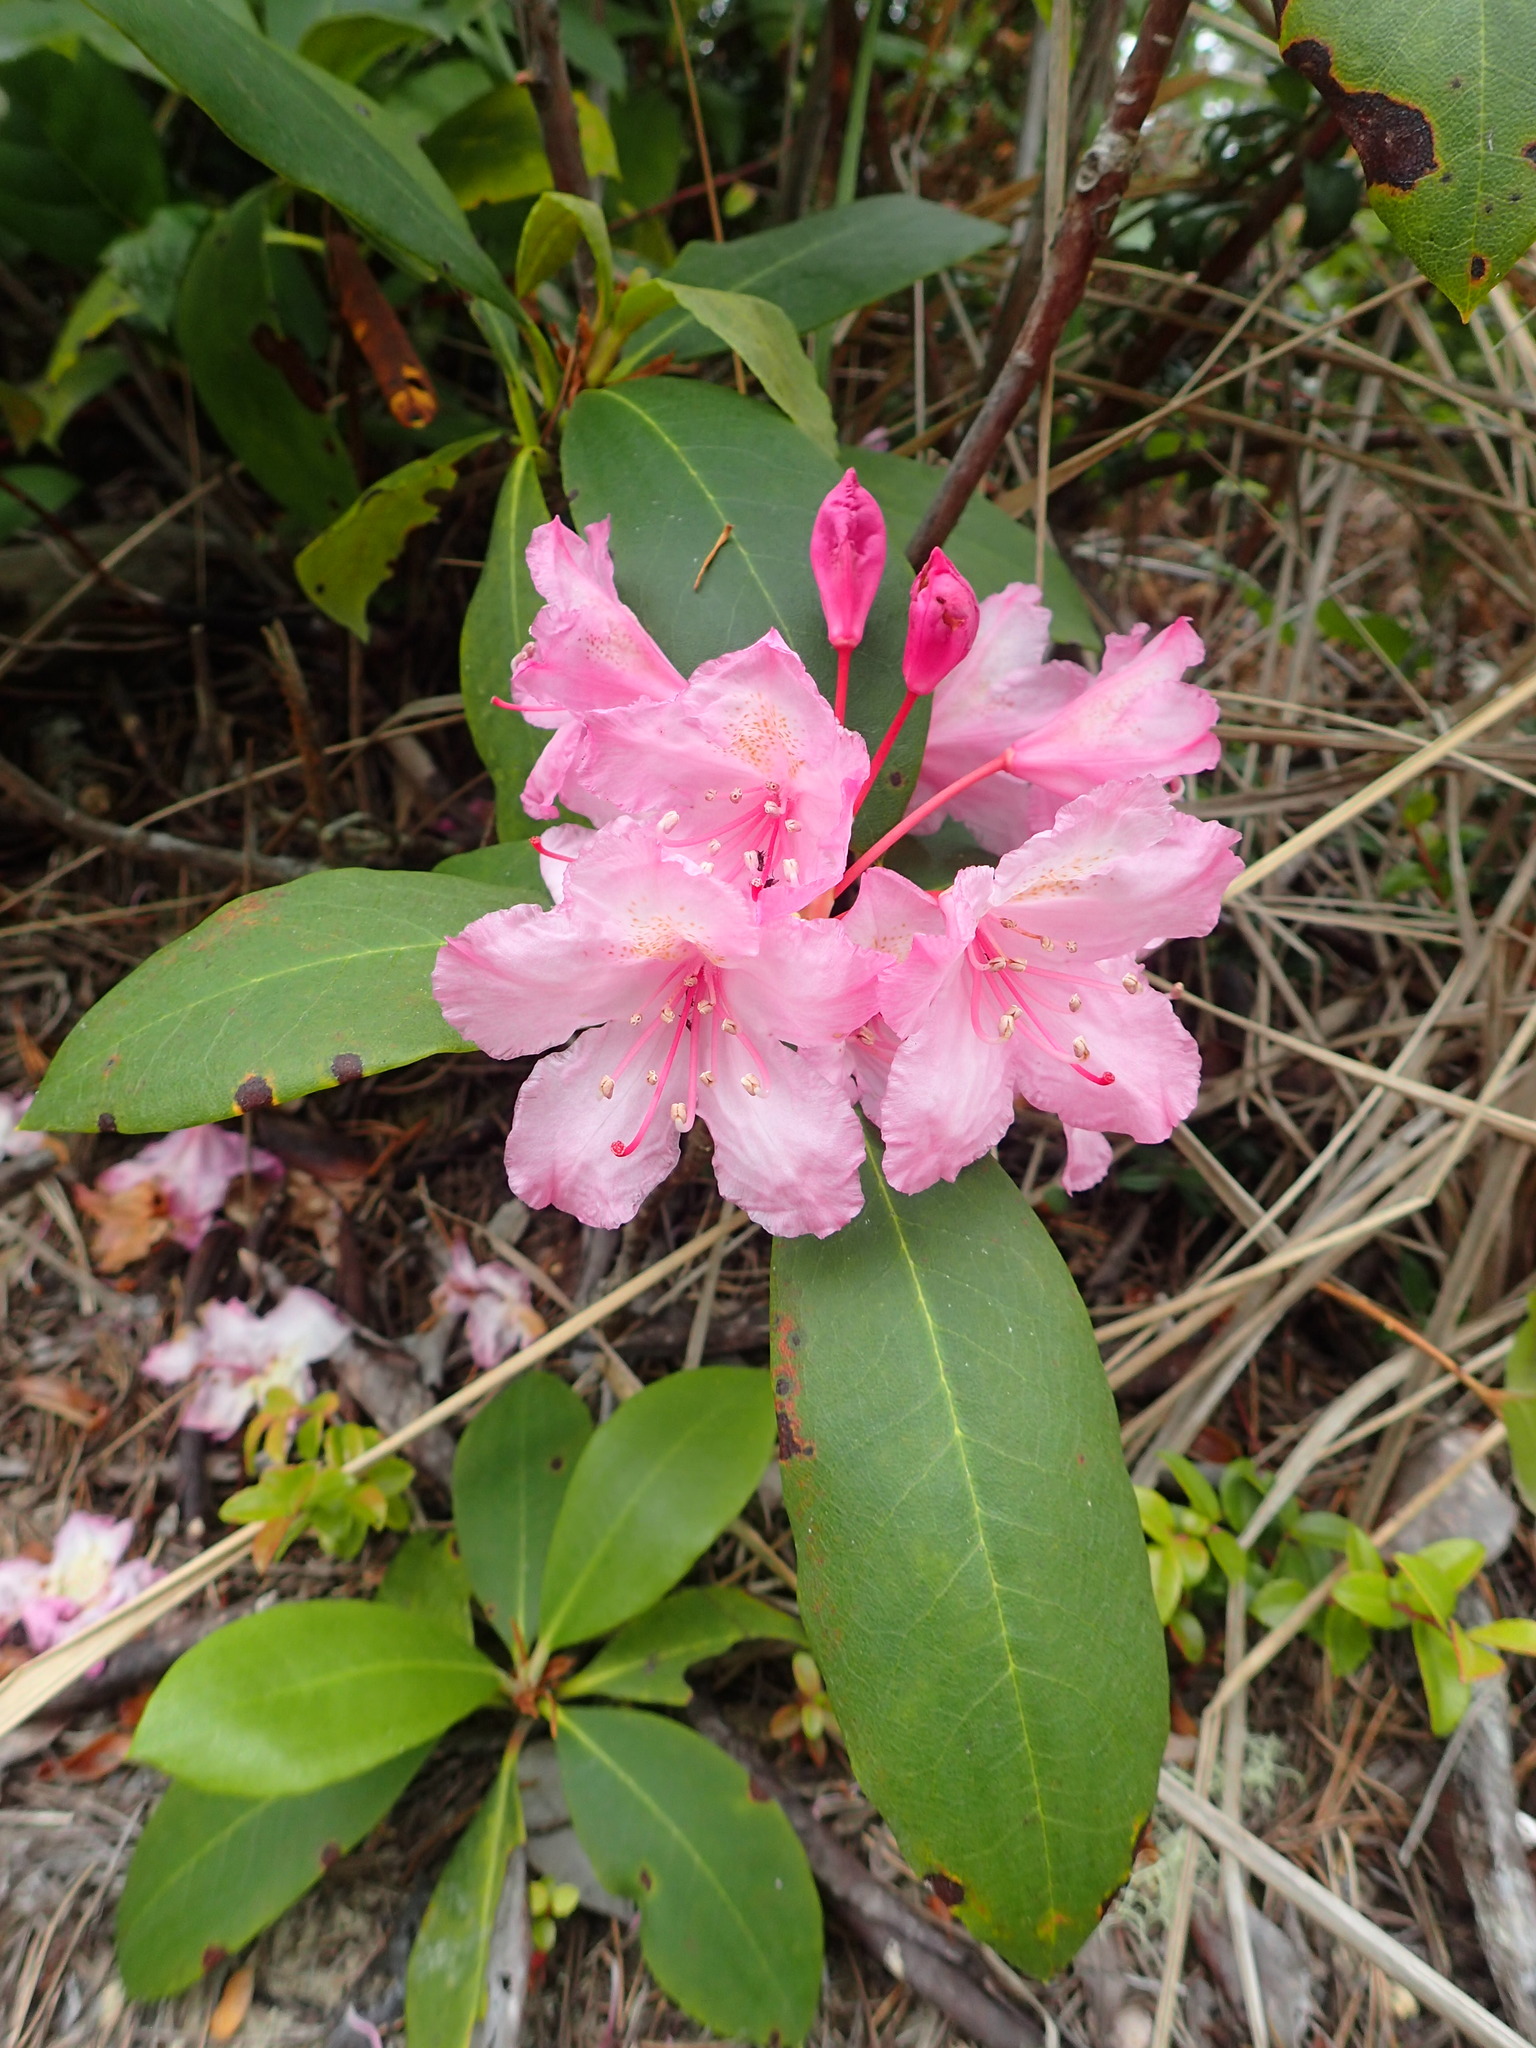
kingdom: Plantae
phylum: Tracheophyta
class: Magnoliopsida
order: Ericales
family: Ericaceae
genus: Rhododendron
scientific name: Rhododendron macrophyllum
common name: California rose bay
